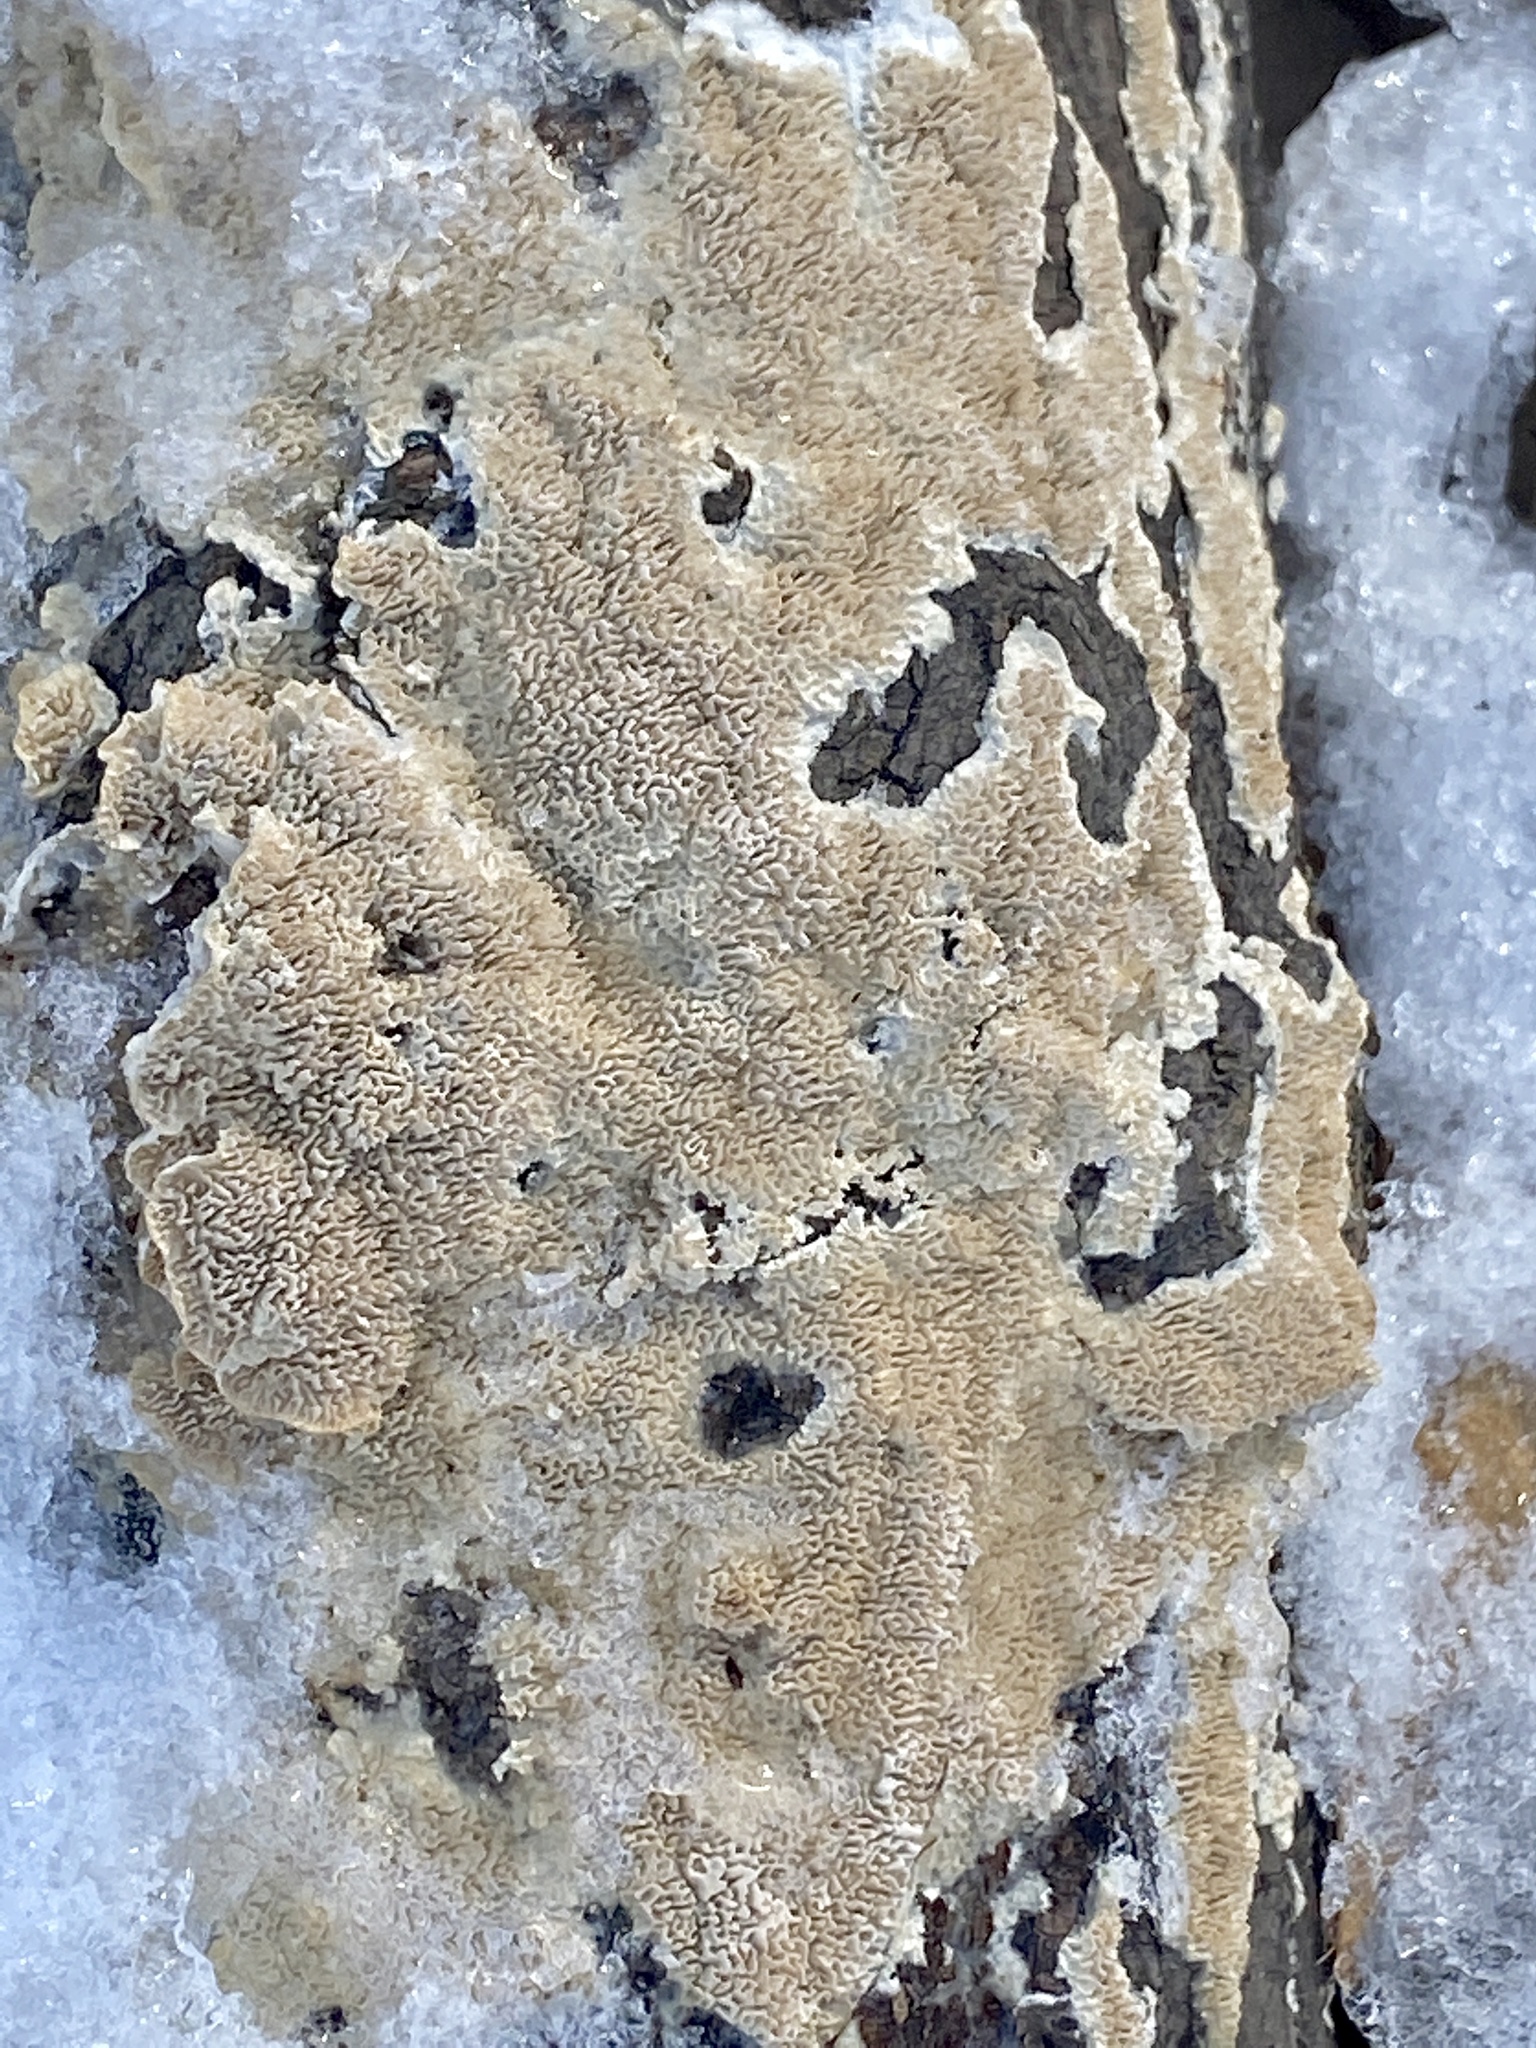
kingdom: Fungi
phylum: Basidiomycota
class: Agaricomycetes
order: Polyporales
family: Irpicaceae
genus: Irpex
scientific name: Irpex lacteus
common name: Milk-white toothed polypore
